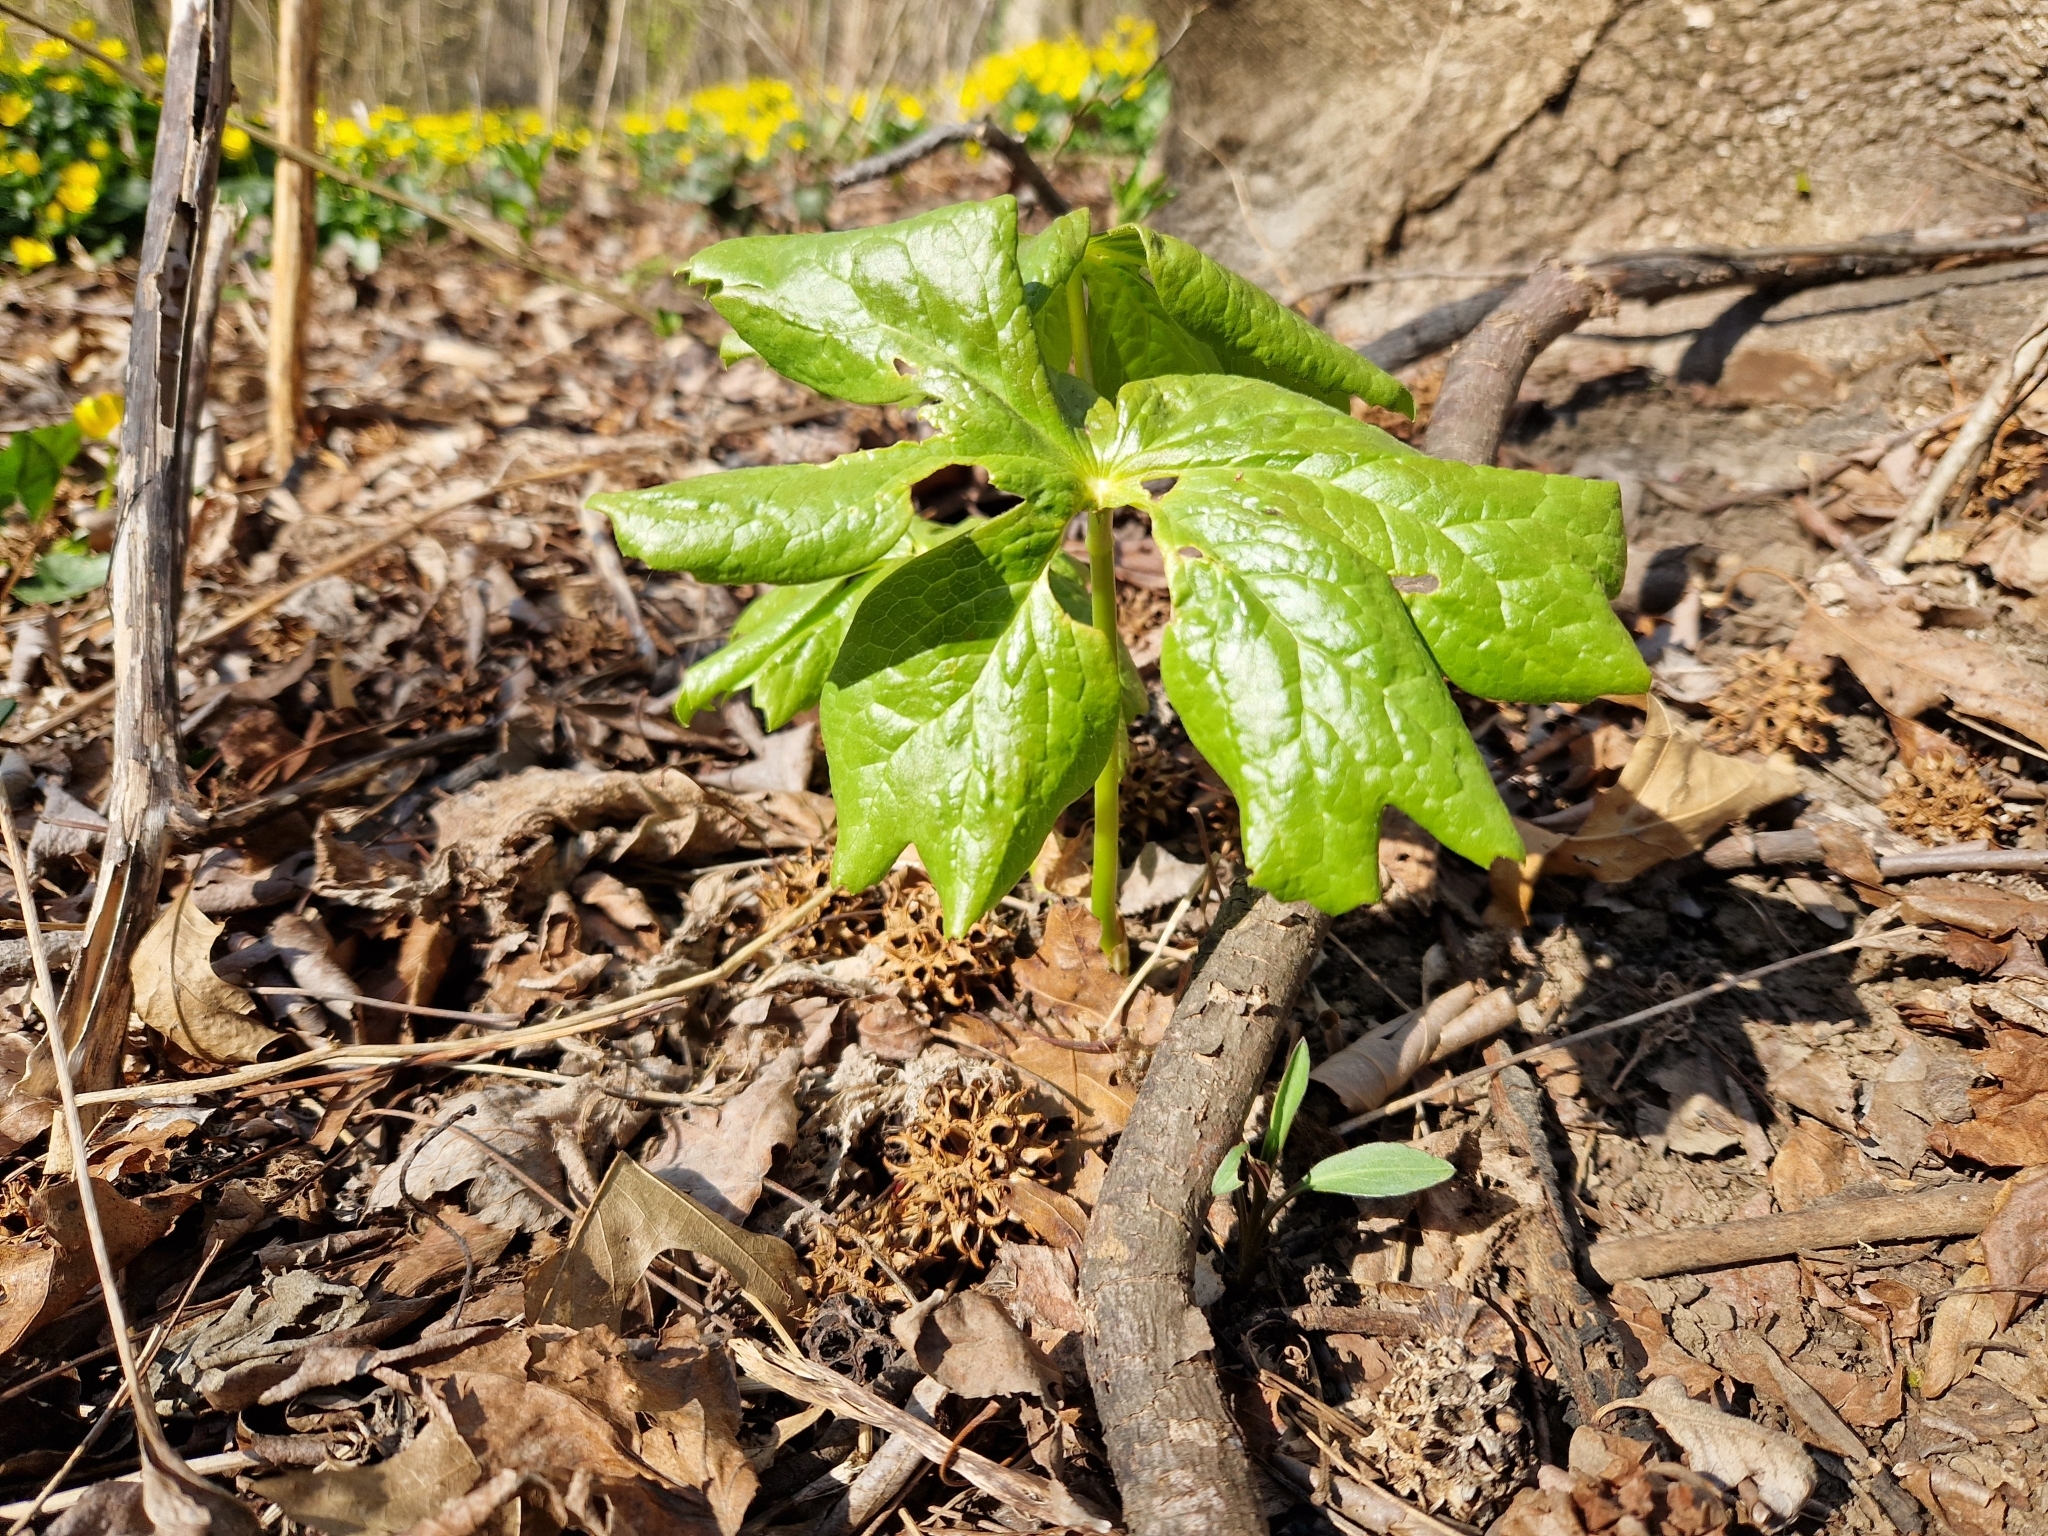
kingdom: Plantae
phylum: Tracheophyta
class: Magnoliopsida
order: Ranunculales
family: Berberidaceae
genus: Podophyllum
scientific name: Podophyllum peltatum
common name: Wild mandrake
